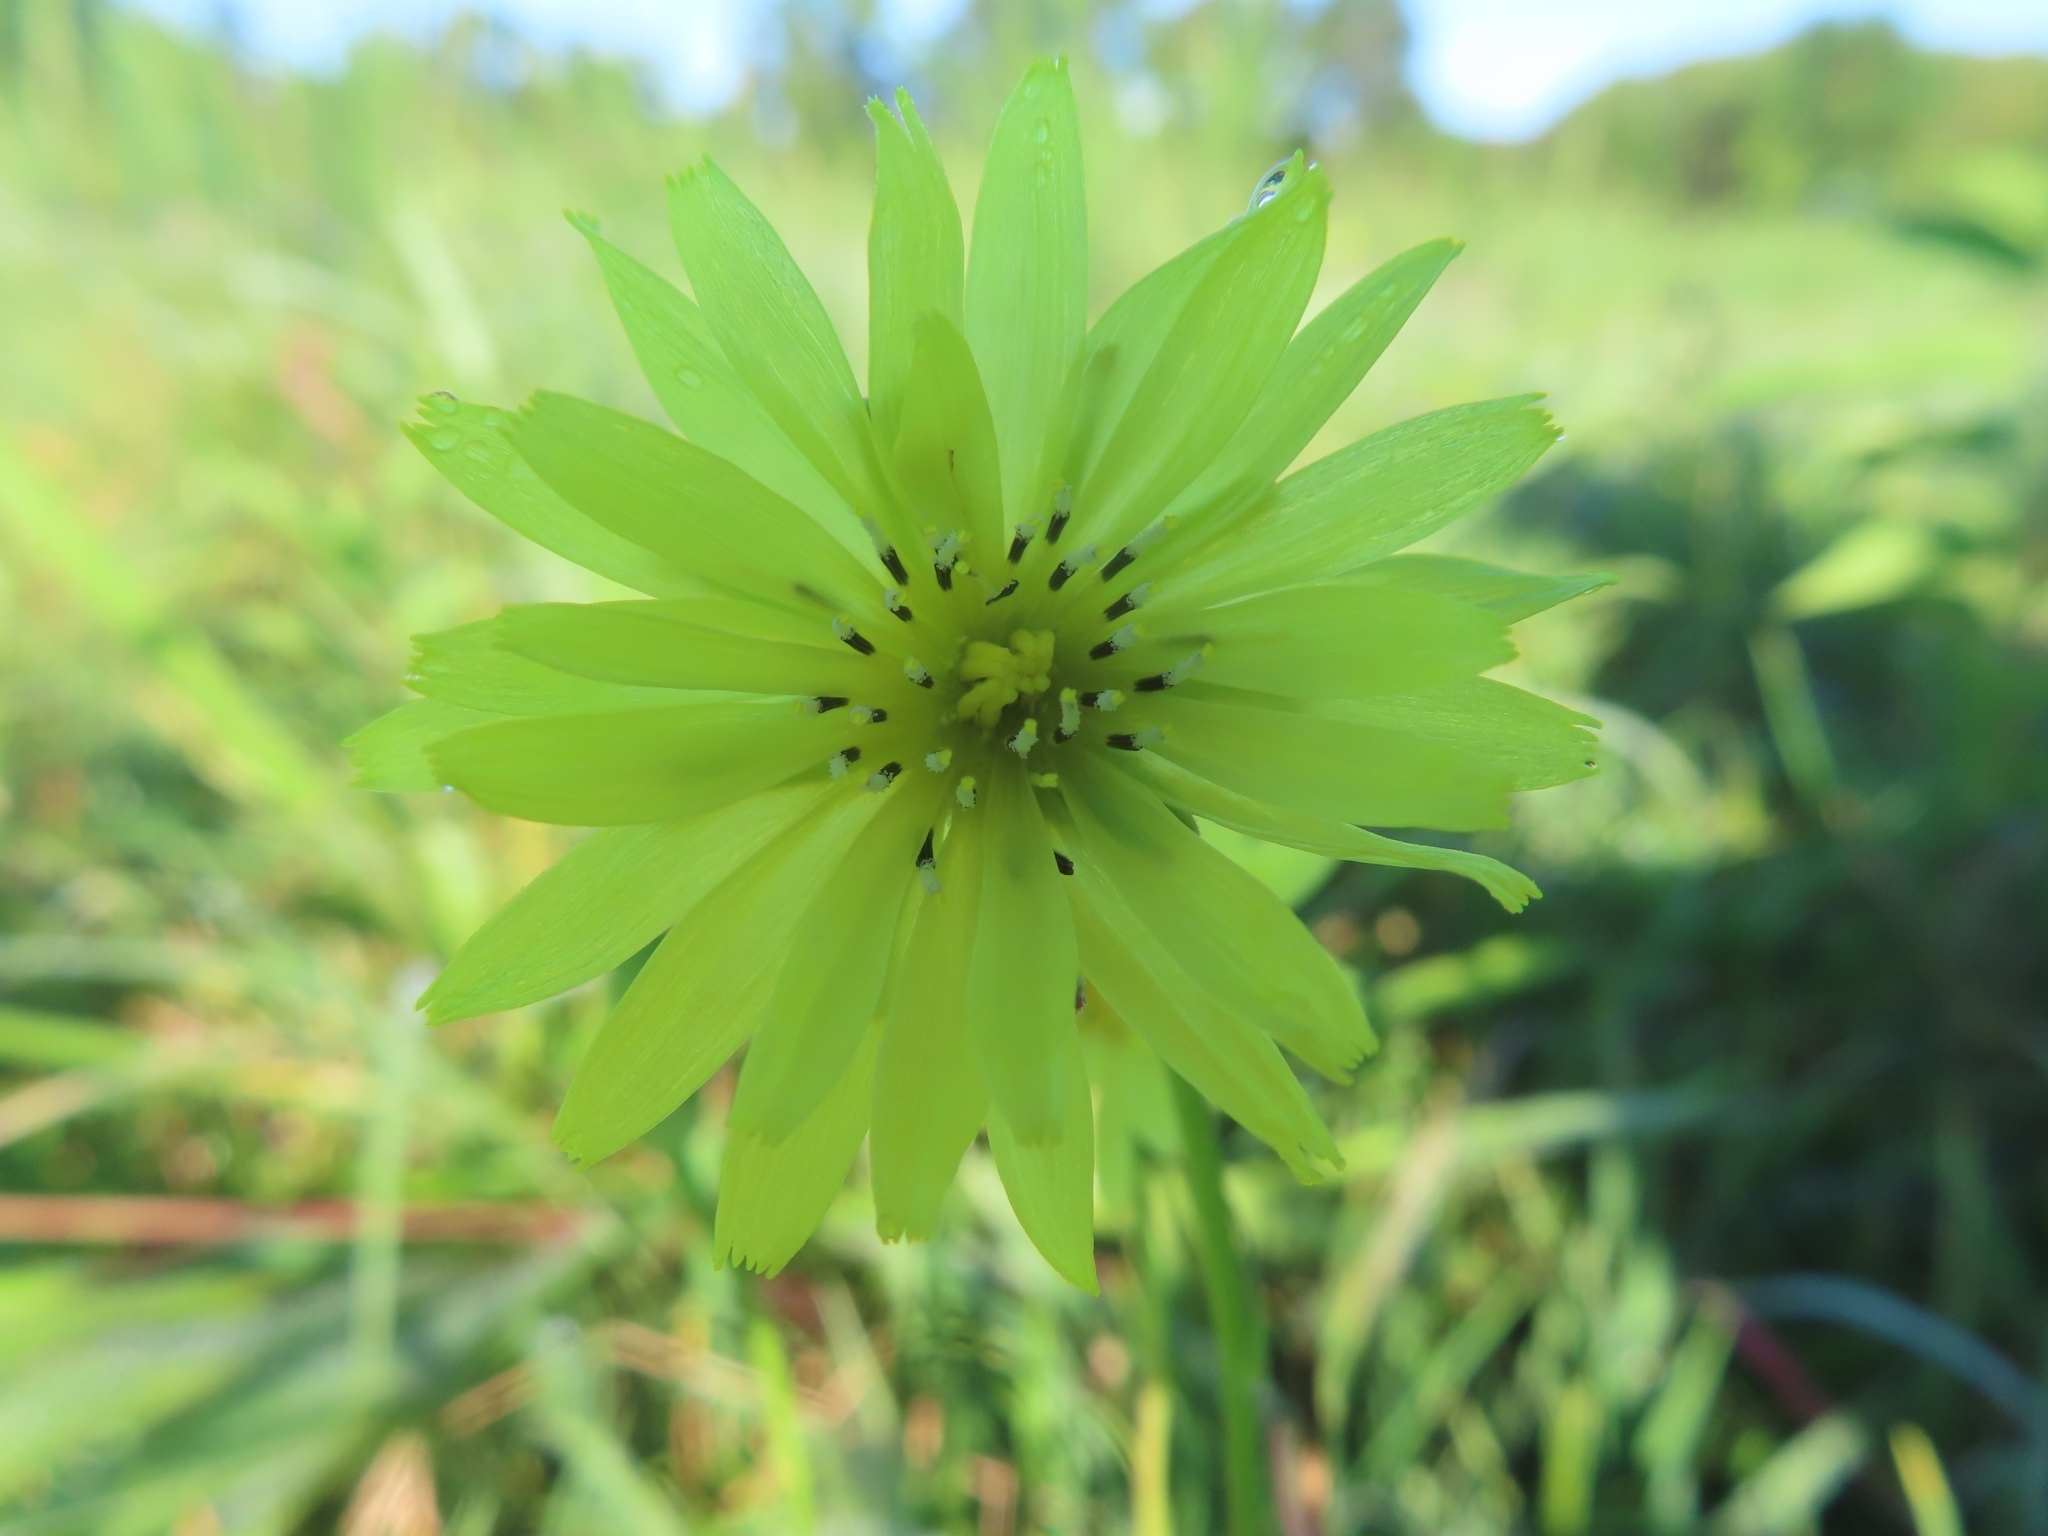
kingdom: Plantae
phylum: Tracheophyta
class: Magnoliopsida
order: Asterales
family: Asteraceae
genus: Pyrrhopappus
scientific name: Pyrrhopappus carolinianus
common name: Carolina desert-chicory
